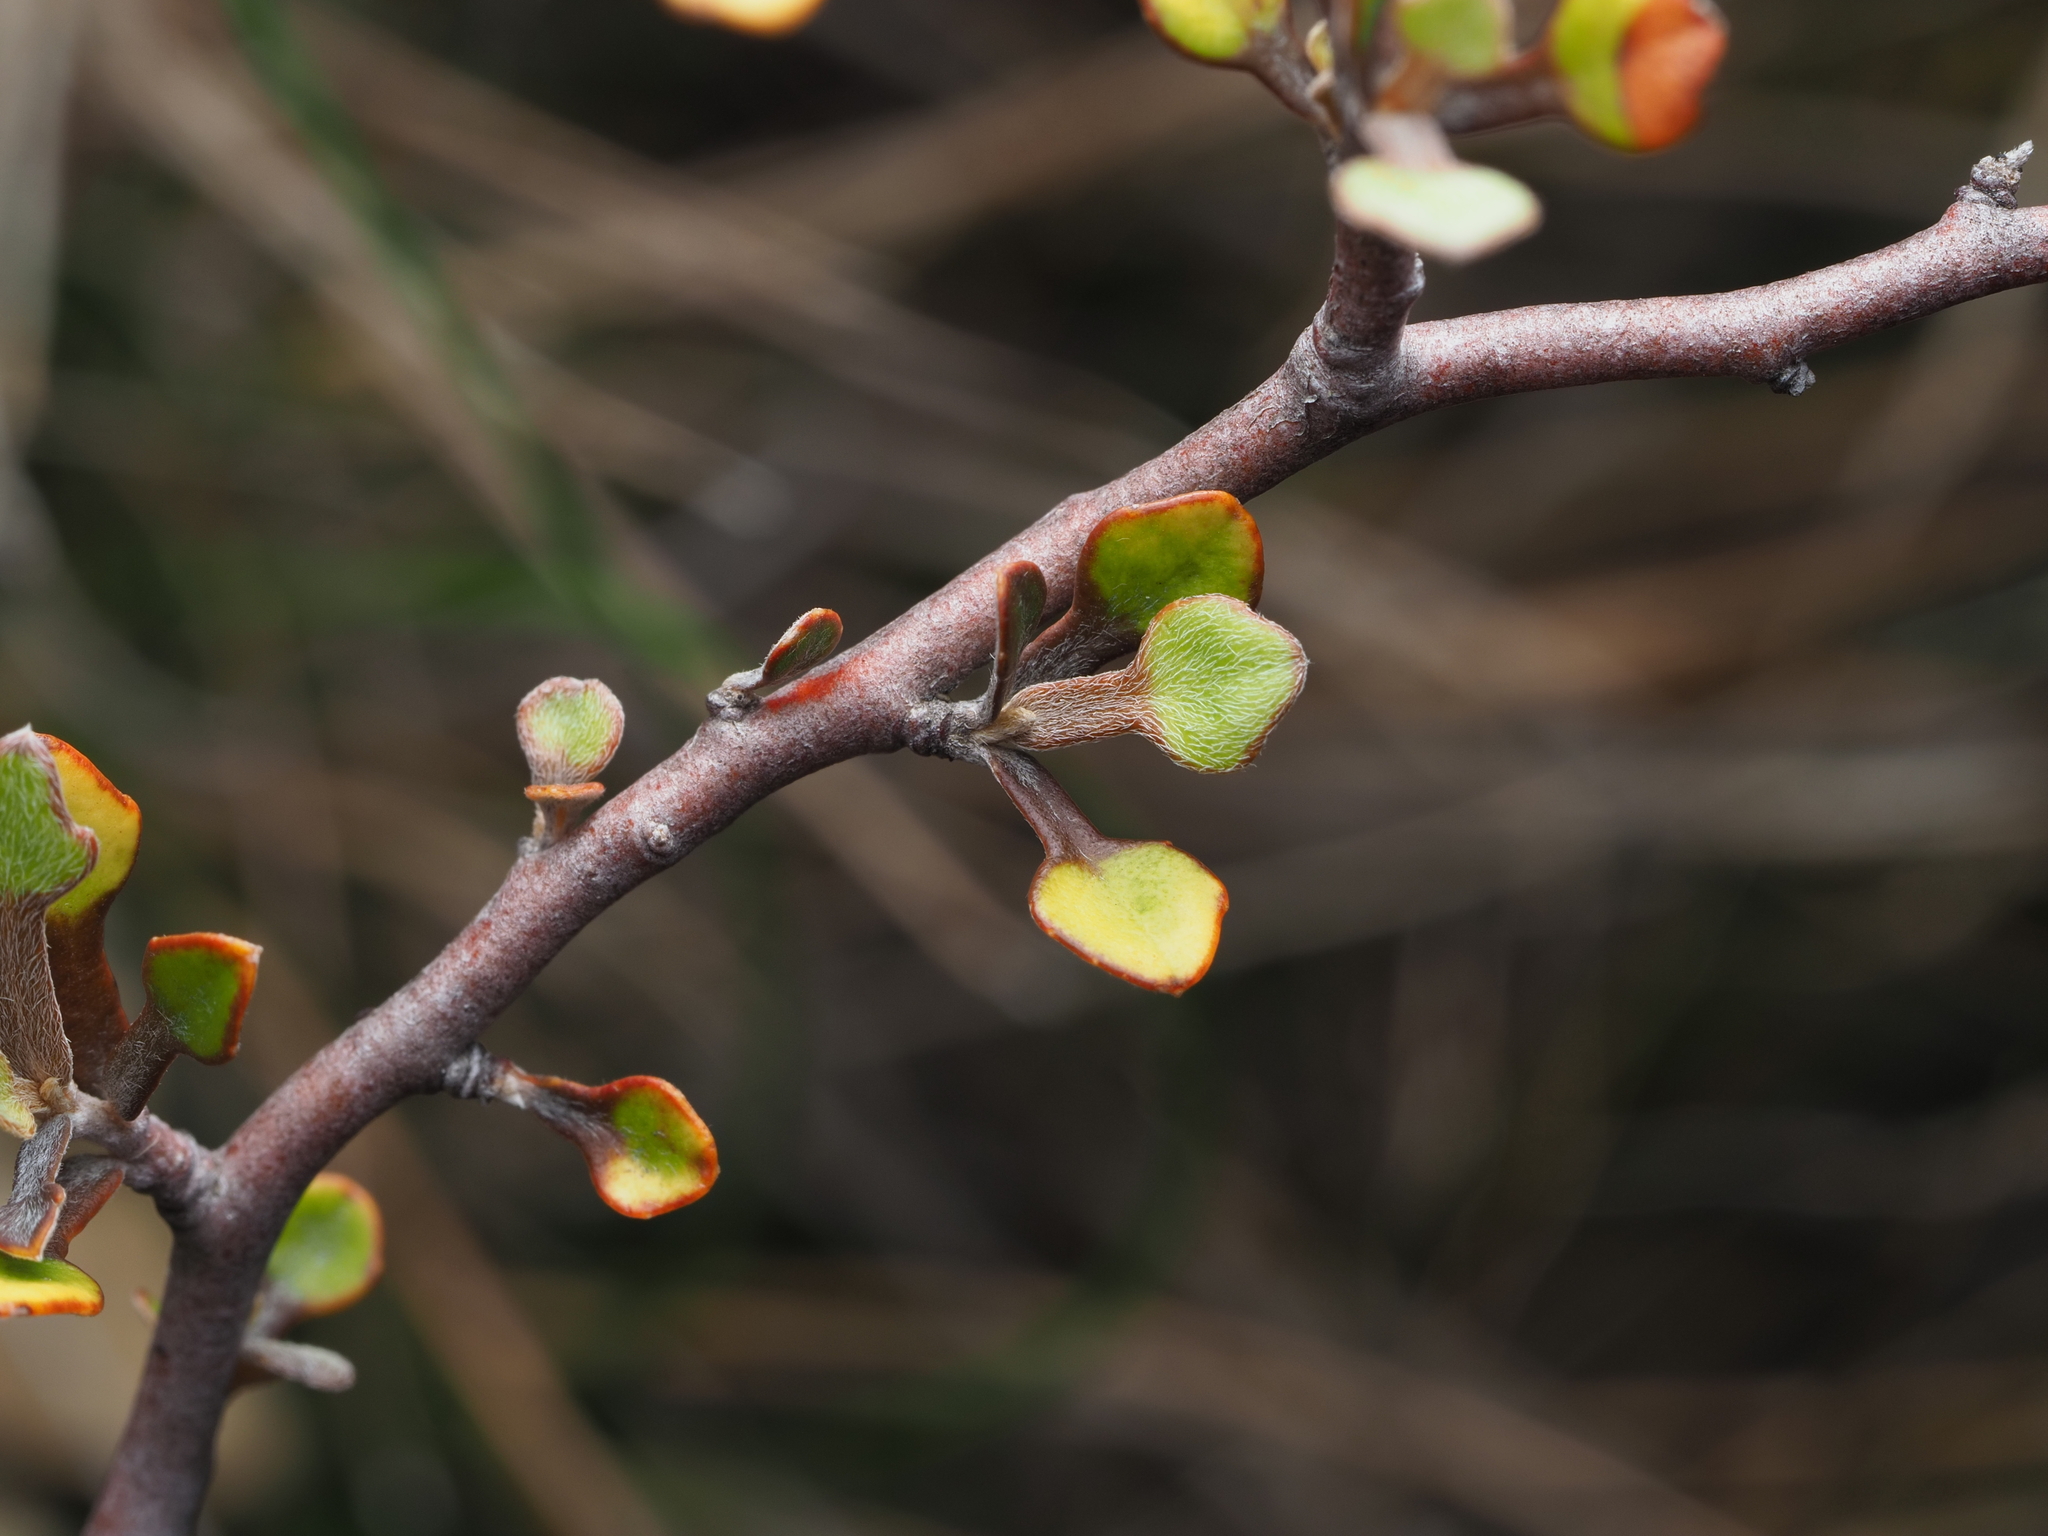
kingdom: Plantae
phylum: Tracheophyta
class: Magnoliopsida
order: Asterales
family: Argophyllaceae
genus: Corokia
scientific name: Corokia cotoneaster
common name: Wire nettingbush
